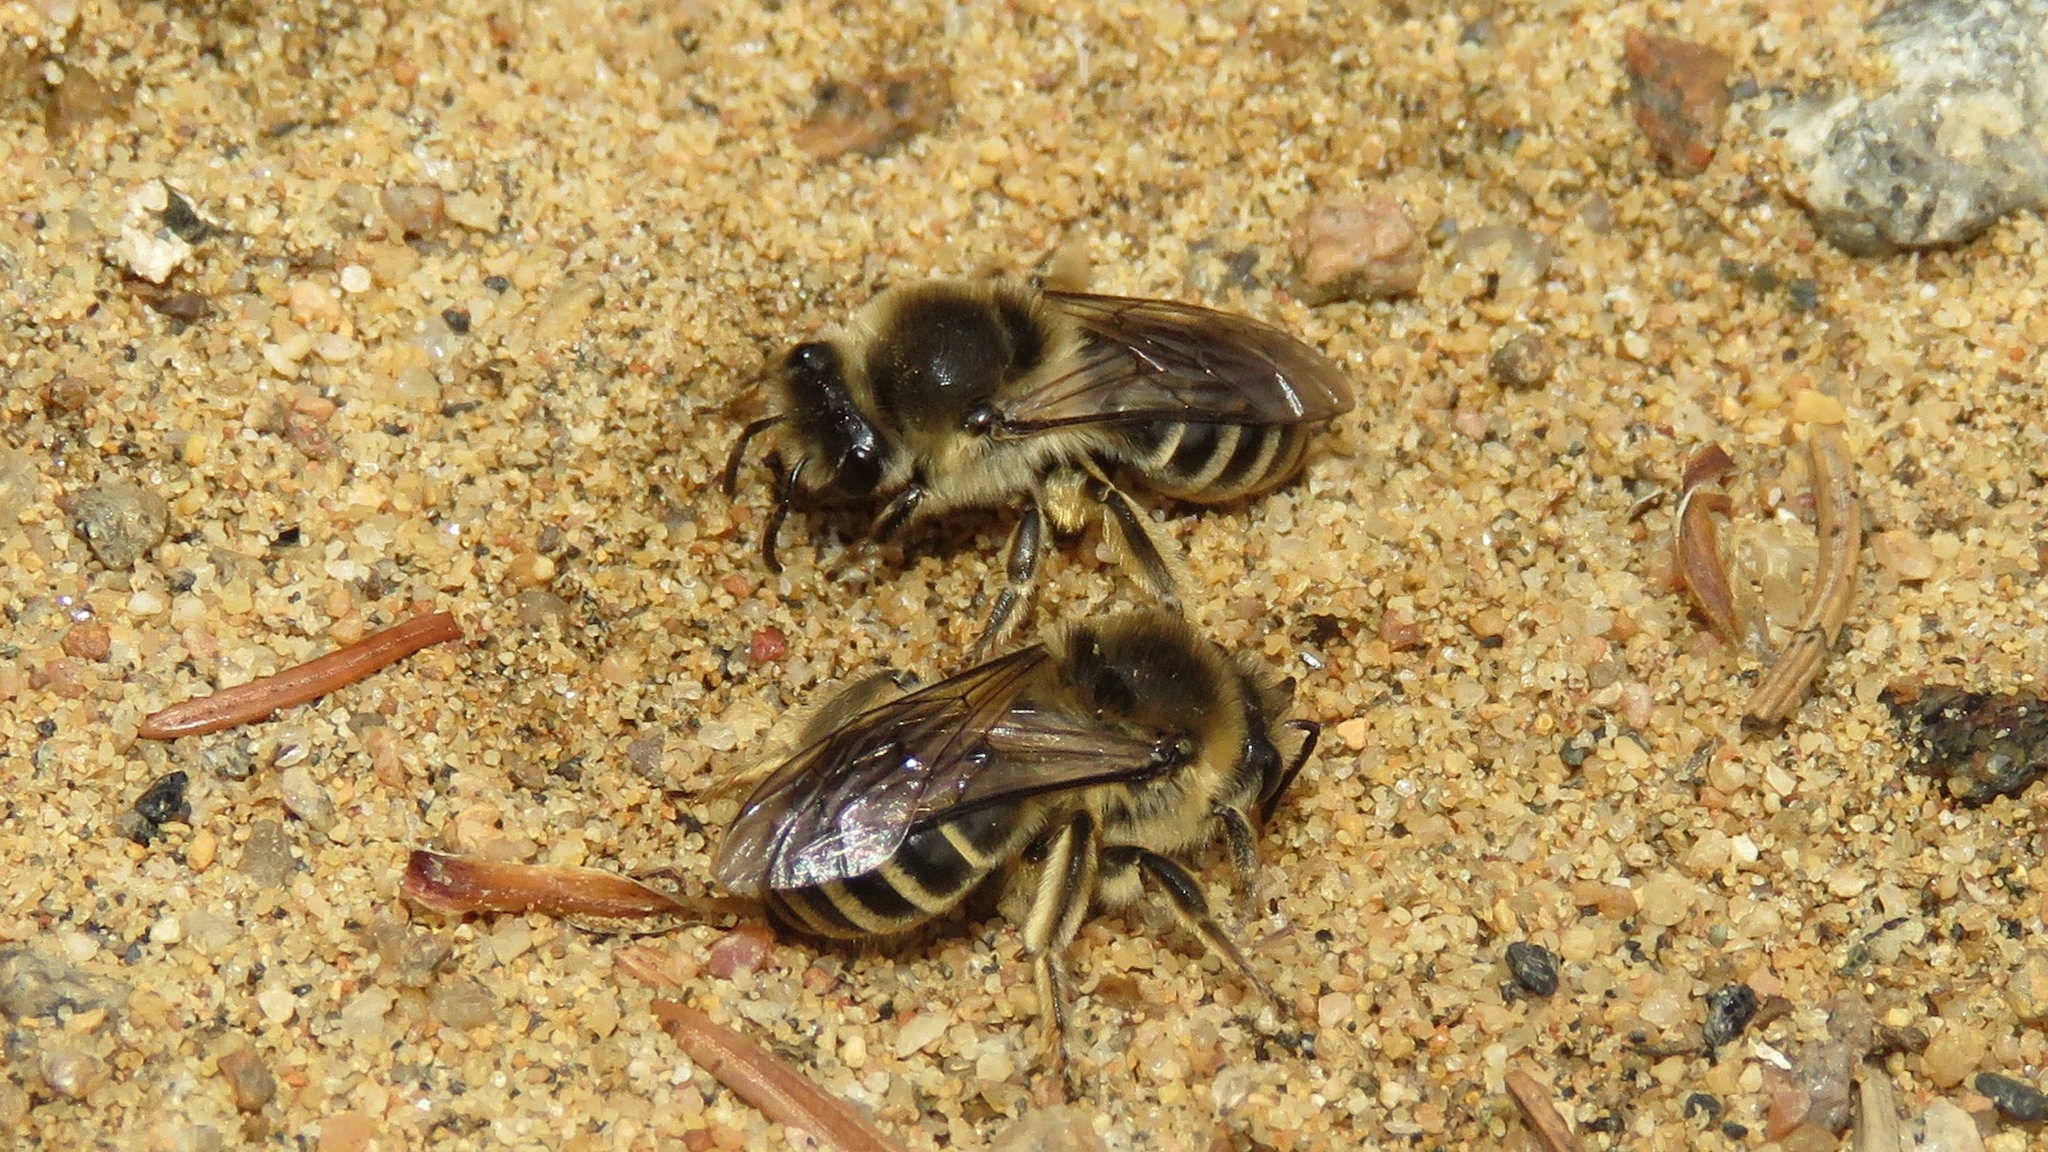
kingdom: Animalia
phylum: Arthropoda
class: Insecta
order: Hymenoptera
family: Colletidae
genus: Colletes
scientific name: Colletes inaequalis
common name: Unequal cellophane bee
